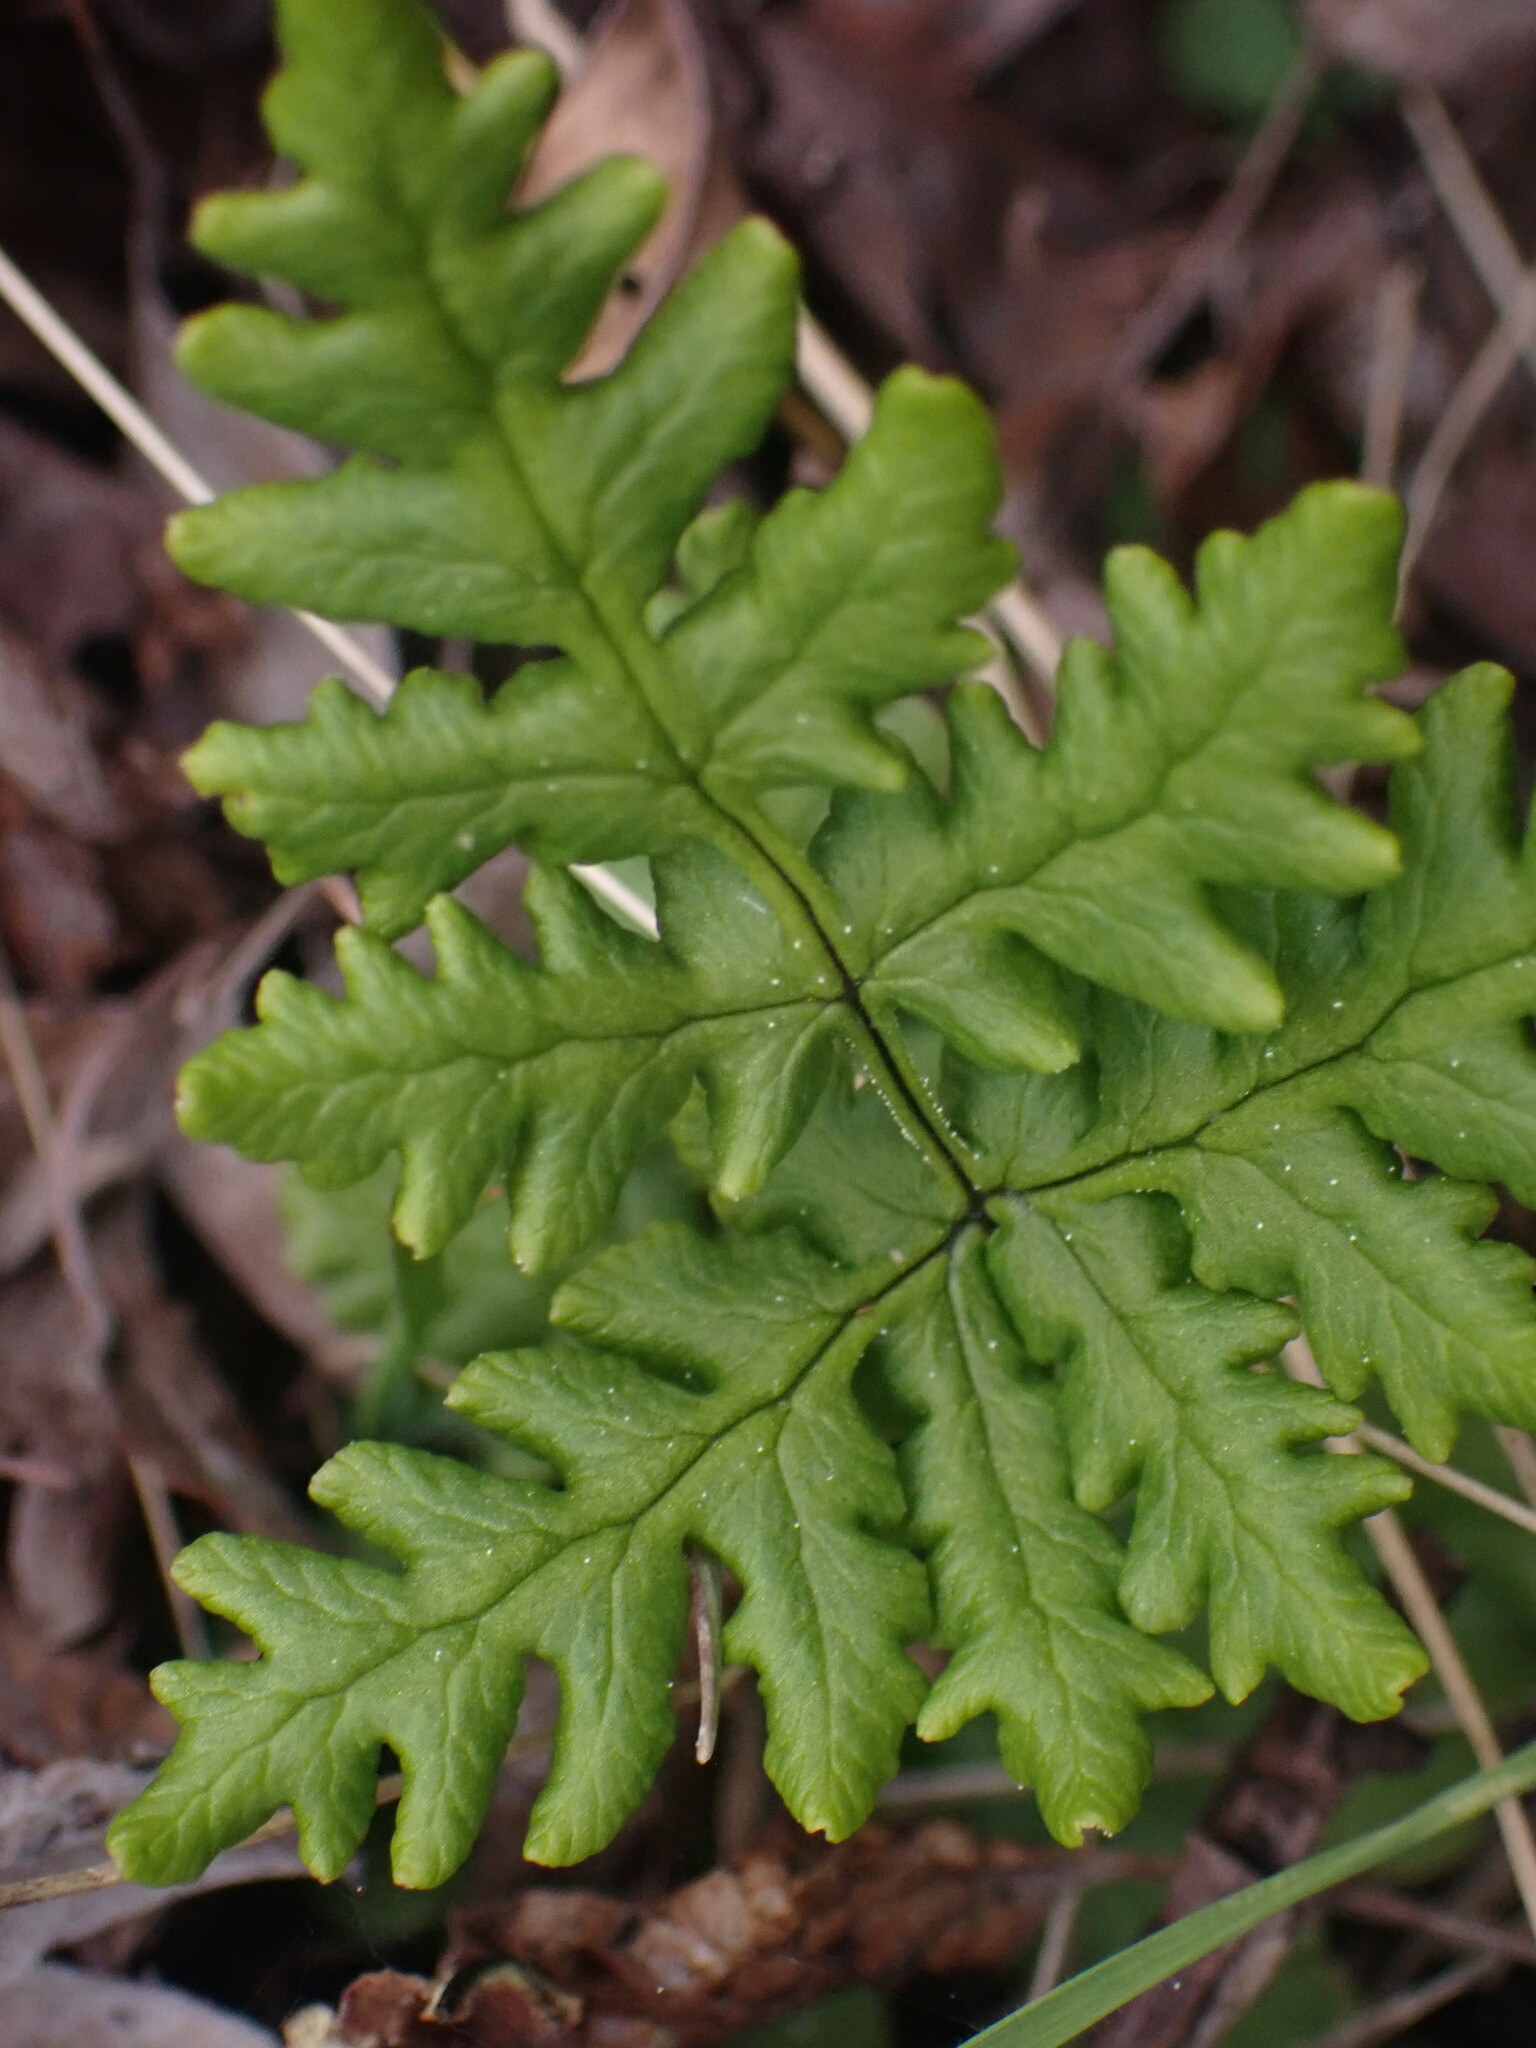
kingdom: Plantae
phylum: Tracheophyta
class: Polypodiopsida
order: Polypodiales
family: Pteridaceae
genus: Pentagramma
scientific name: Pentagramma triangularis
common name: Gold fern
